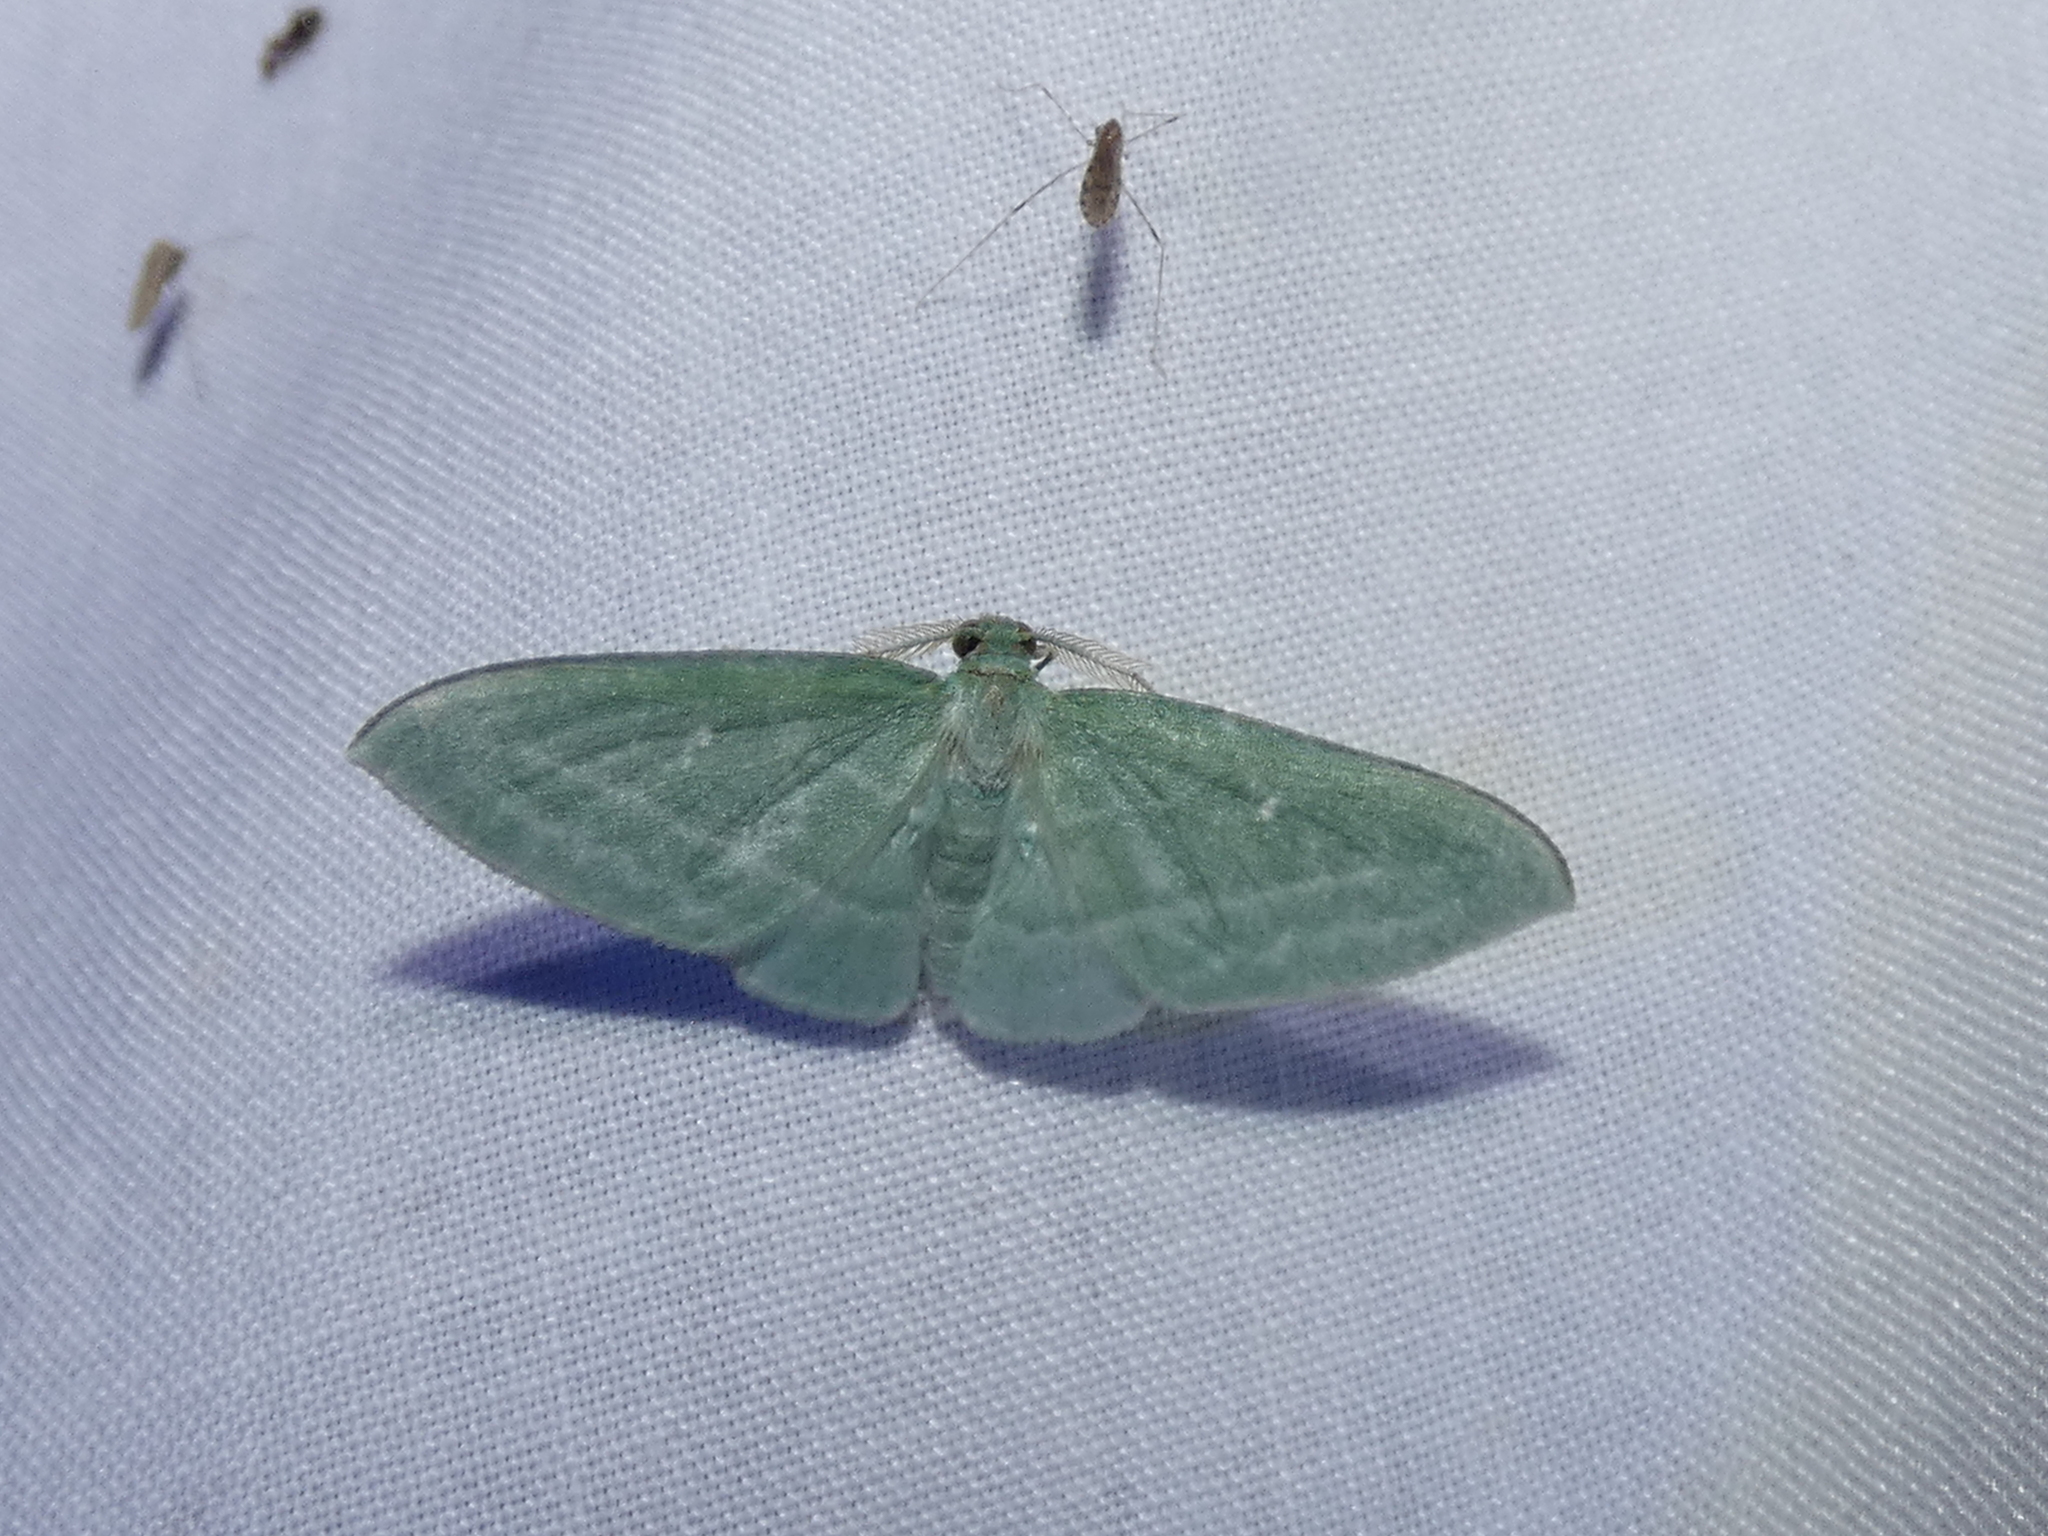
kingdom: Animalia
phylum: Arthropoda
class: Insecta
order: Lepidoptera
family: Geometridae
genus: Dyspteris
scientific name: Dyspteris abortivaria
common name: Bad-wing
